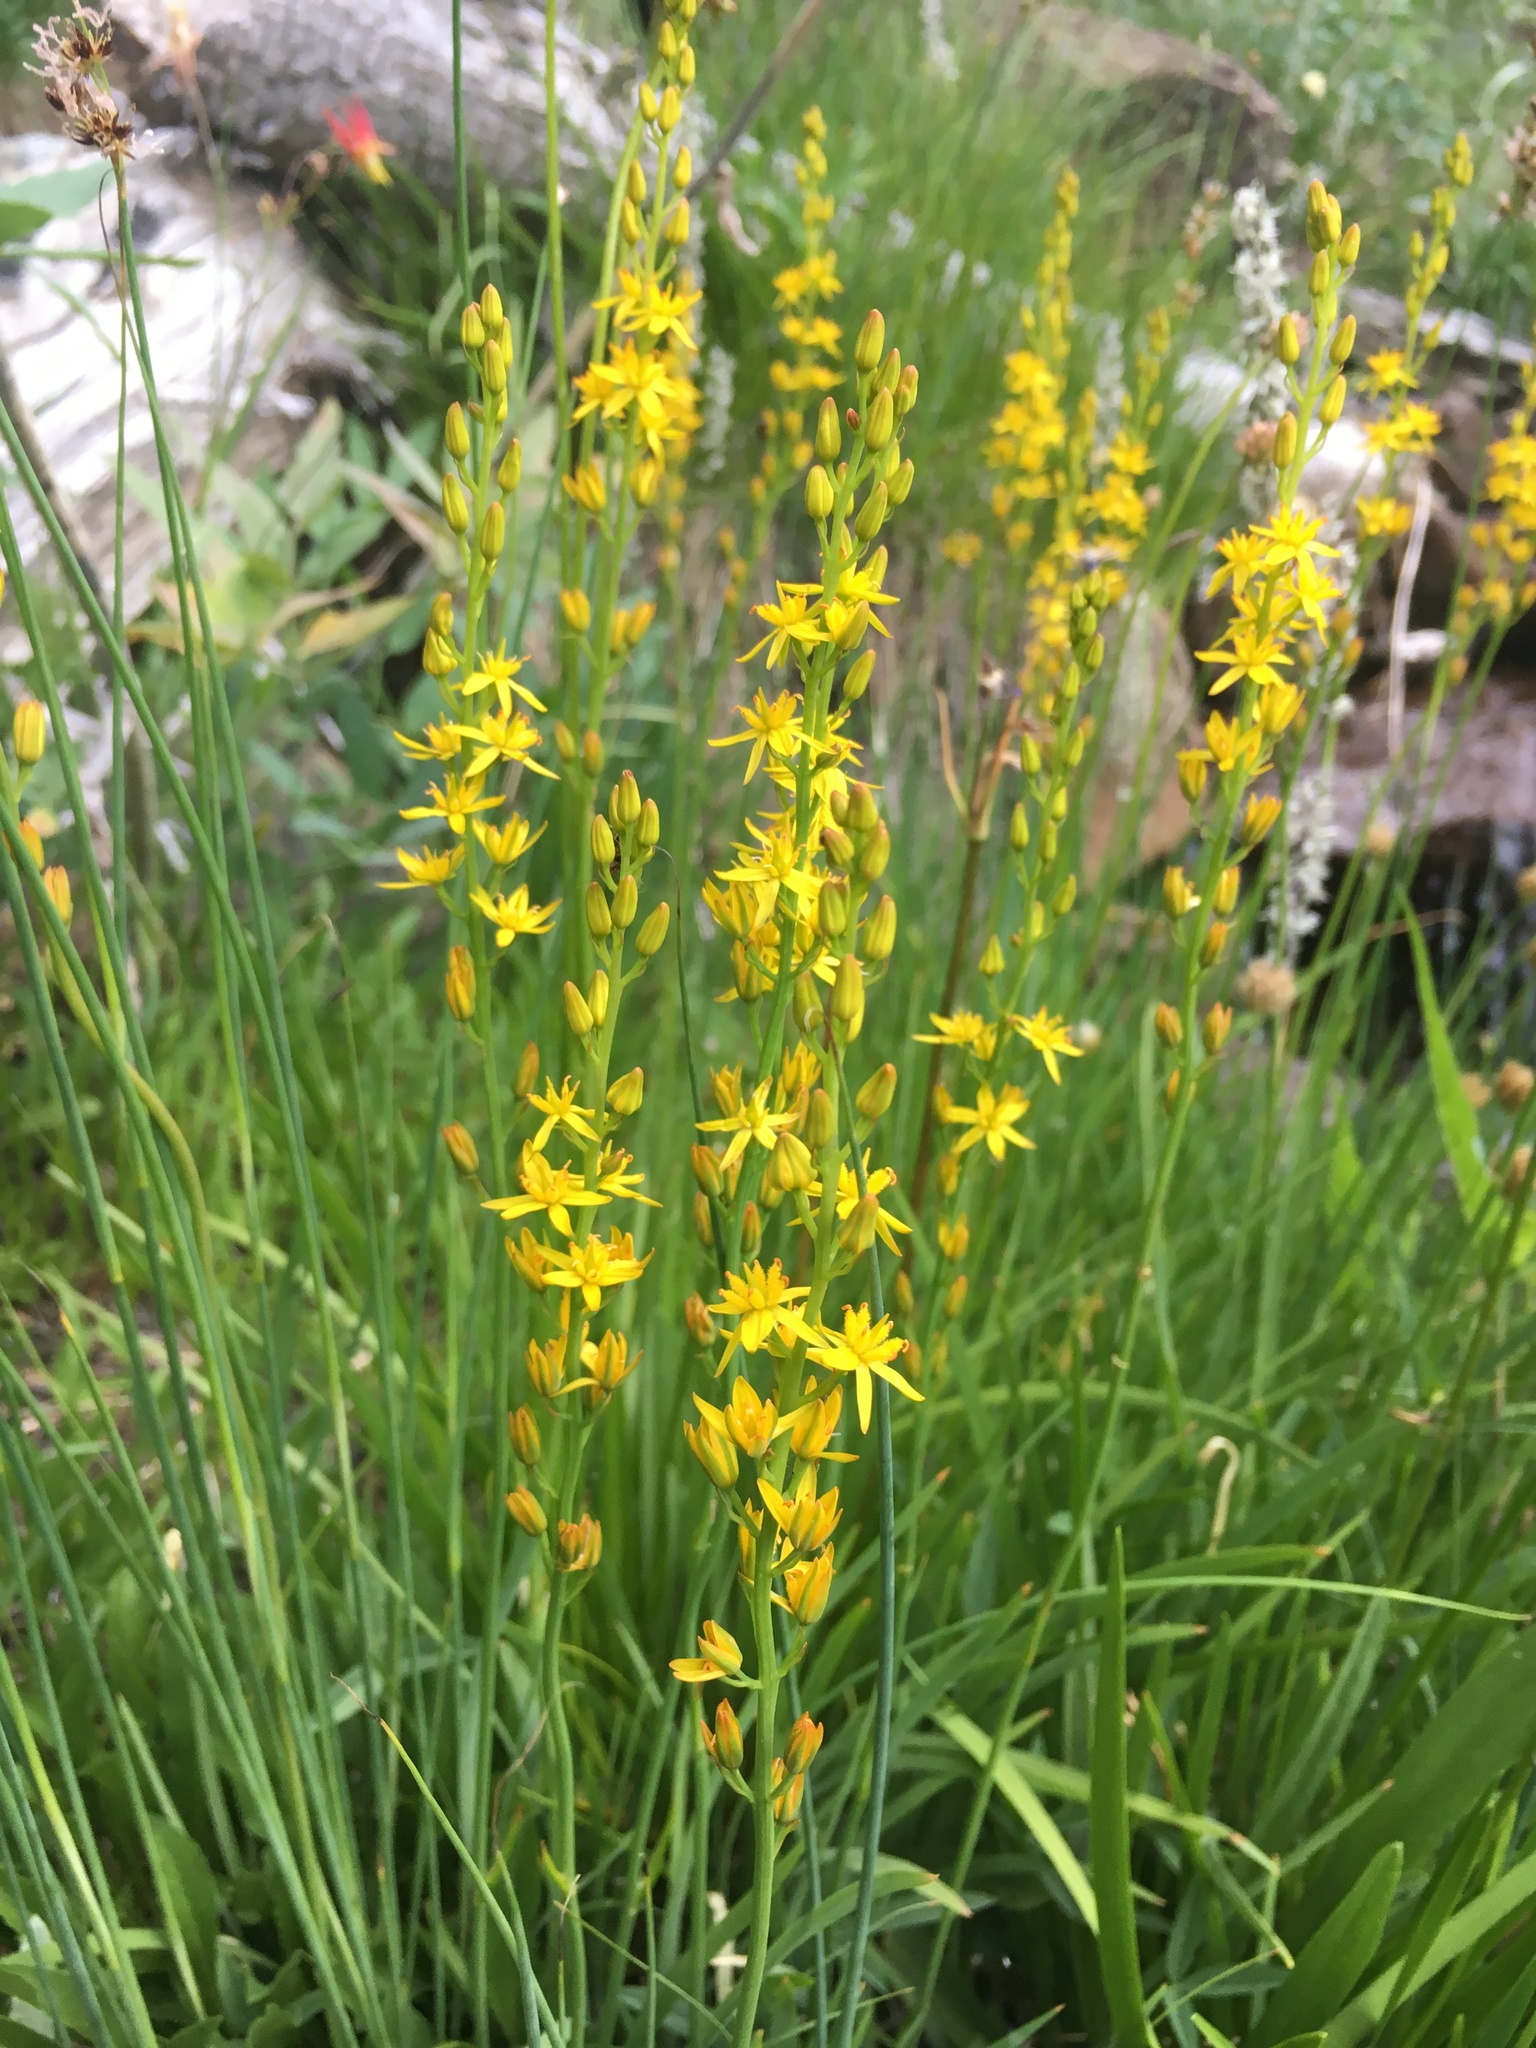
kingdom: Plantae
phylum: Tracheophyta
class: Liliopsida
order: Dioscoreales
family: Nartheciaceae
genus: Narthecium
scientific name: Narthecium californicum
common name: California bog-asphodel
